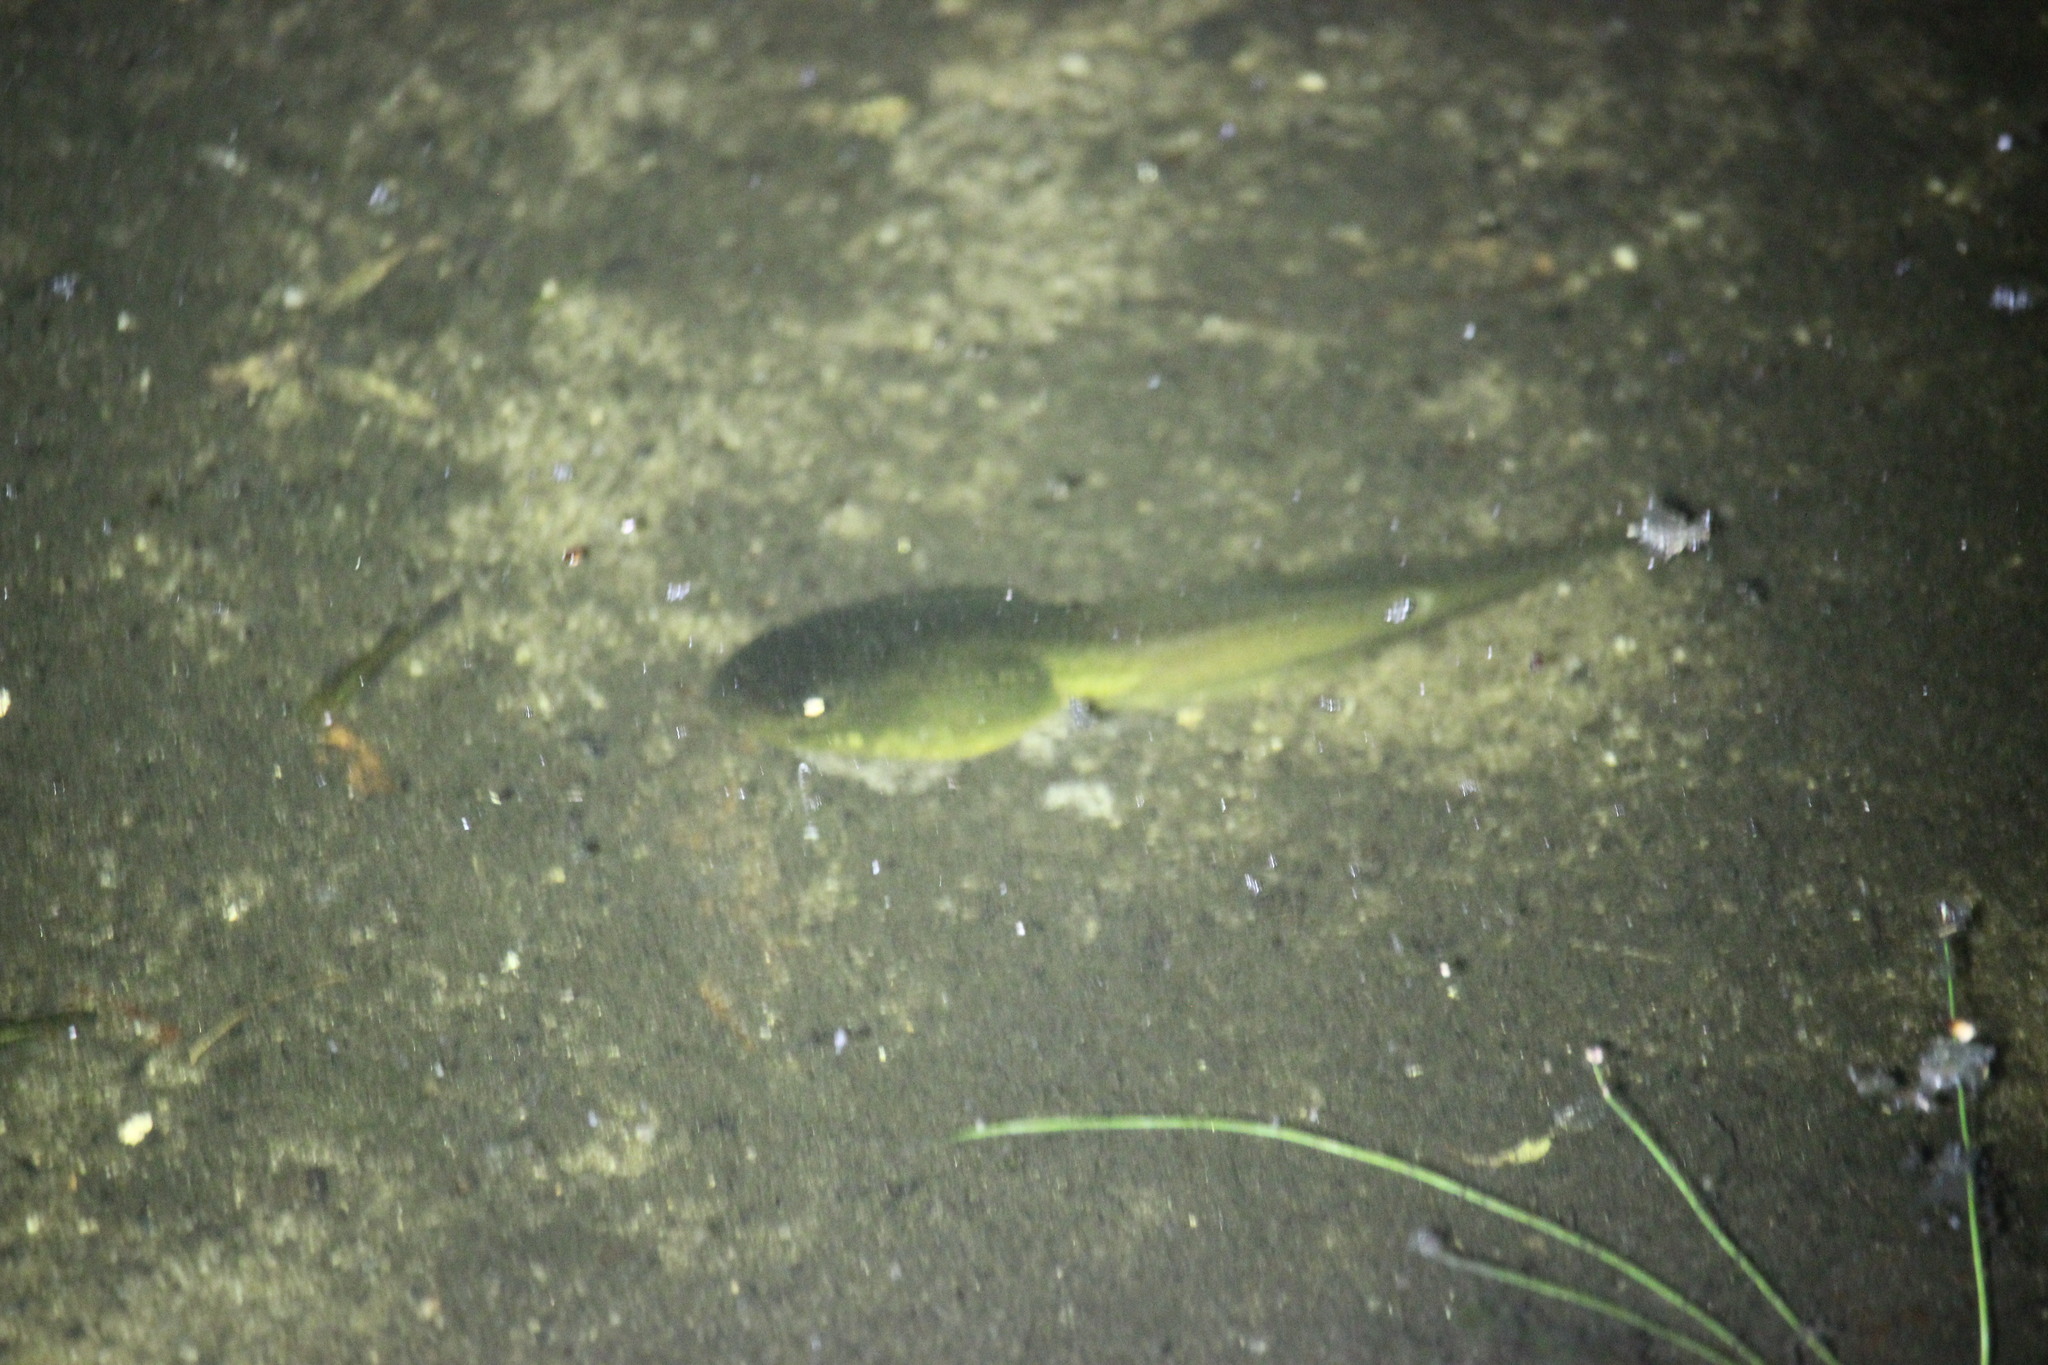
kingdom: Animalia
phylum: Chordata
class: Amphibia
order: Anura
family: Ranidae
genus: Lithobates
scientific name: Lithobates catesbeianus
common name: American bullfrog
